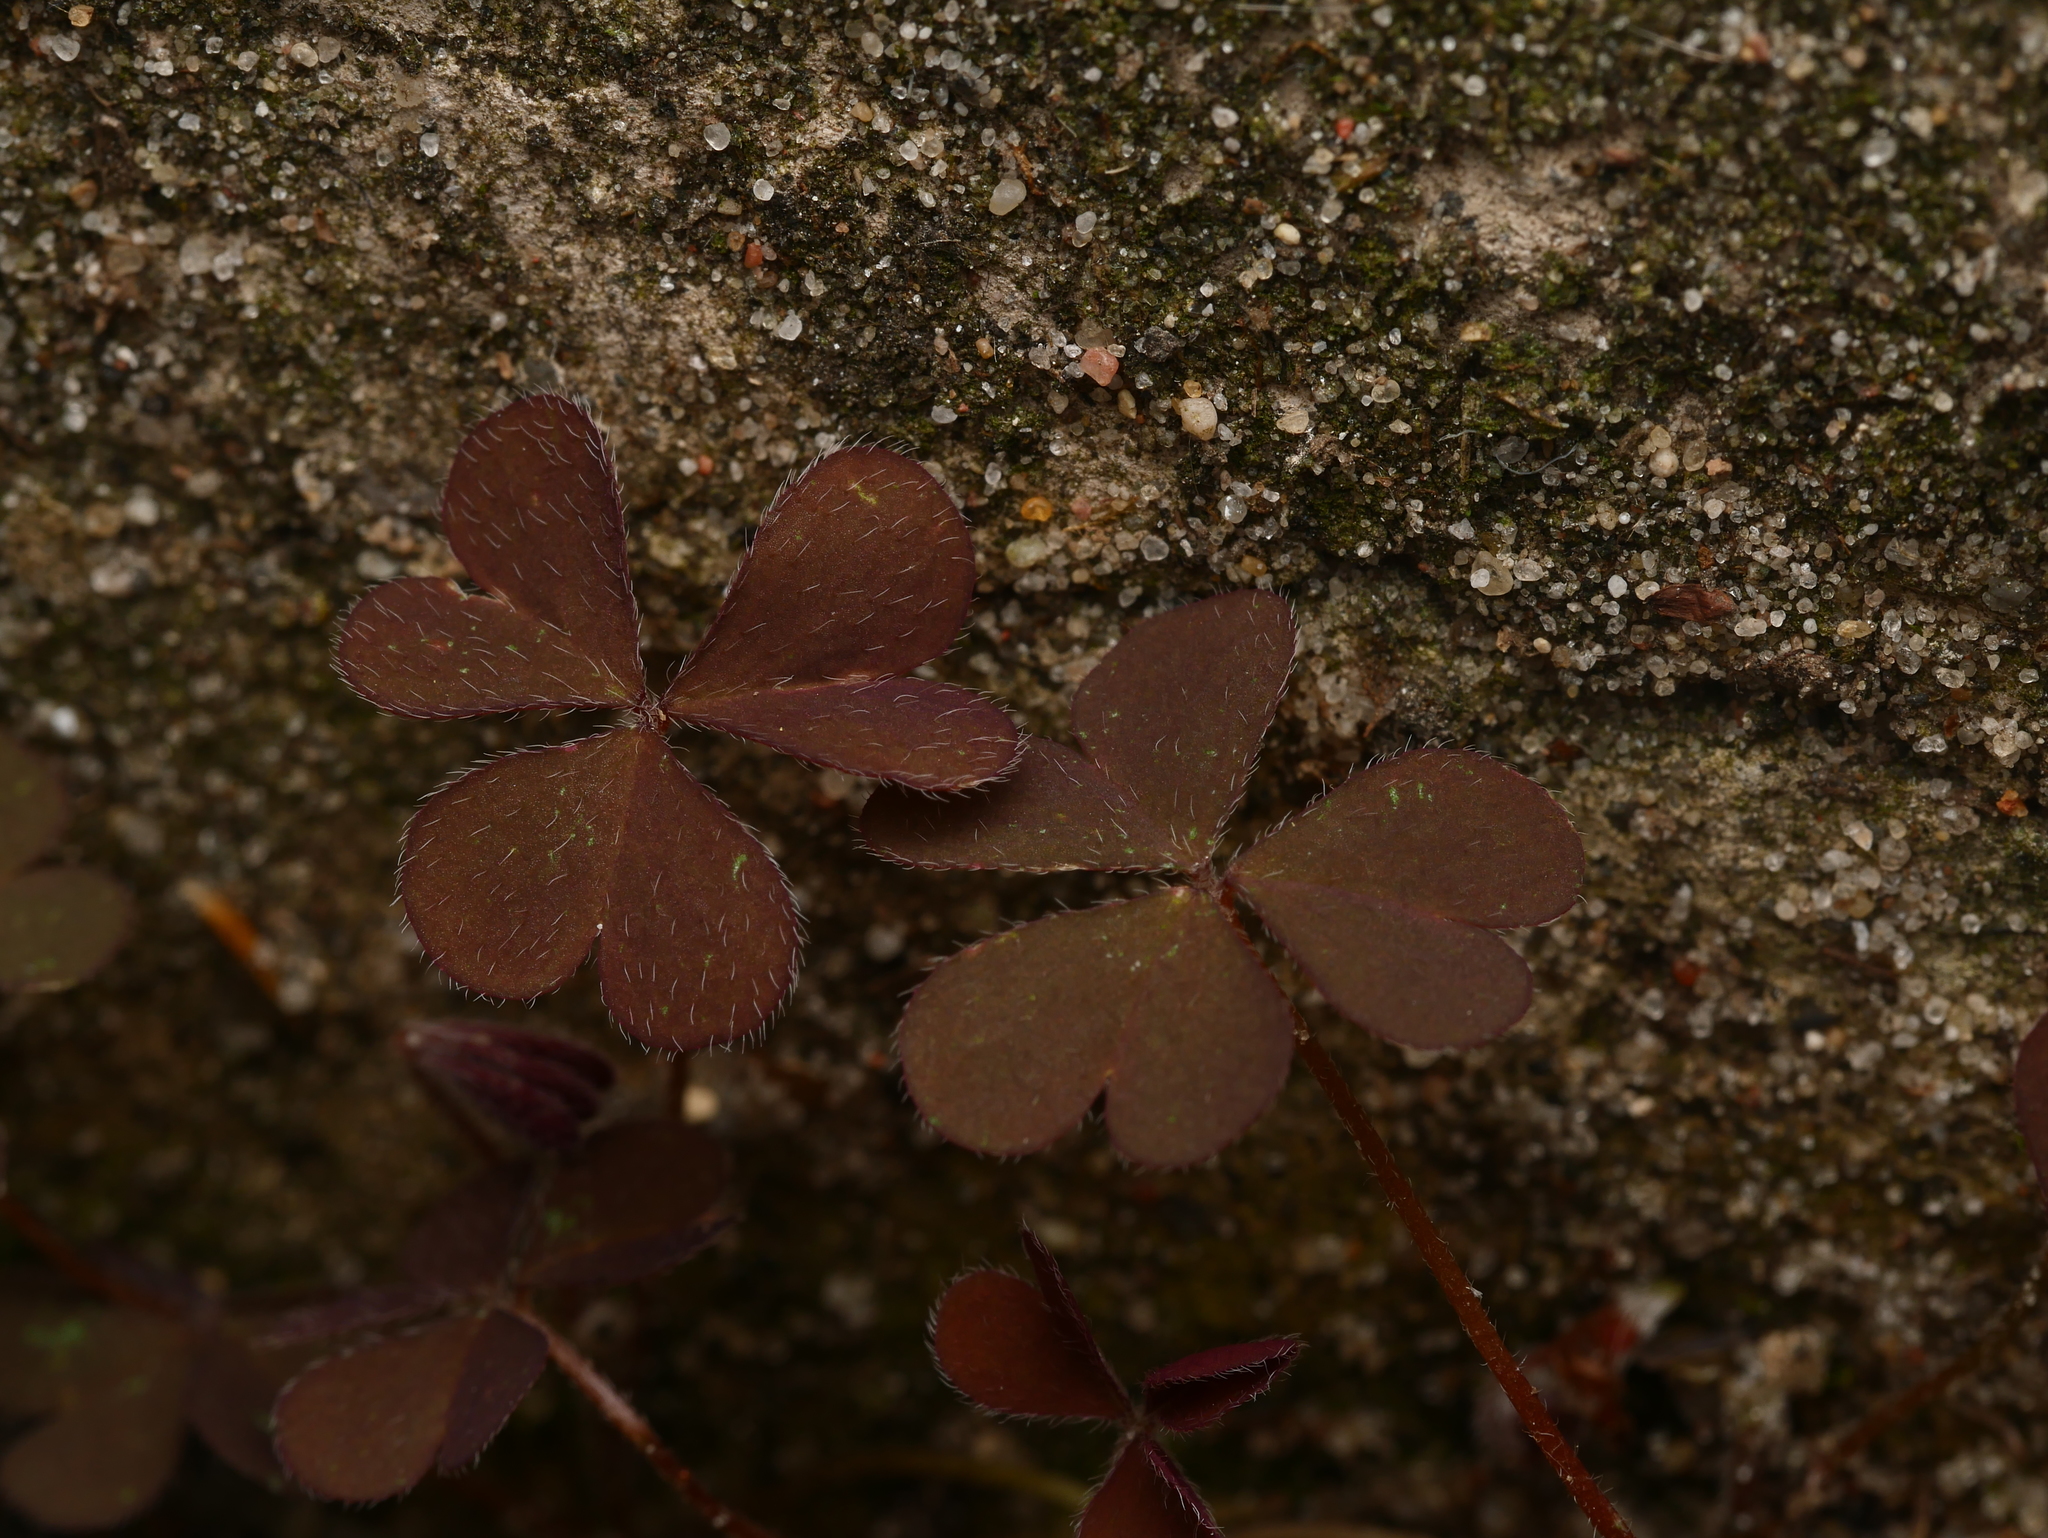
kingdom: Plantae
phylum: Tracheophyta
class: Magnoliopsida
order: Oxalidales
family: Oxalidaceae
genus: Oxalis
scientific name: Oxalis corniculata
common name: Procumbent yellow-sorrel
